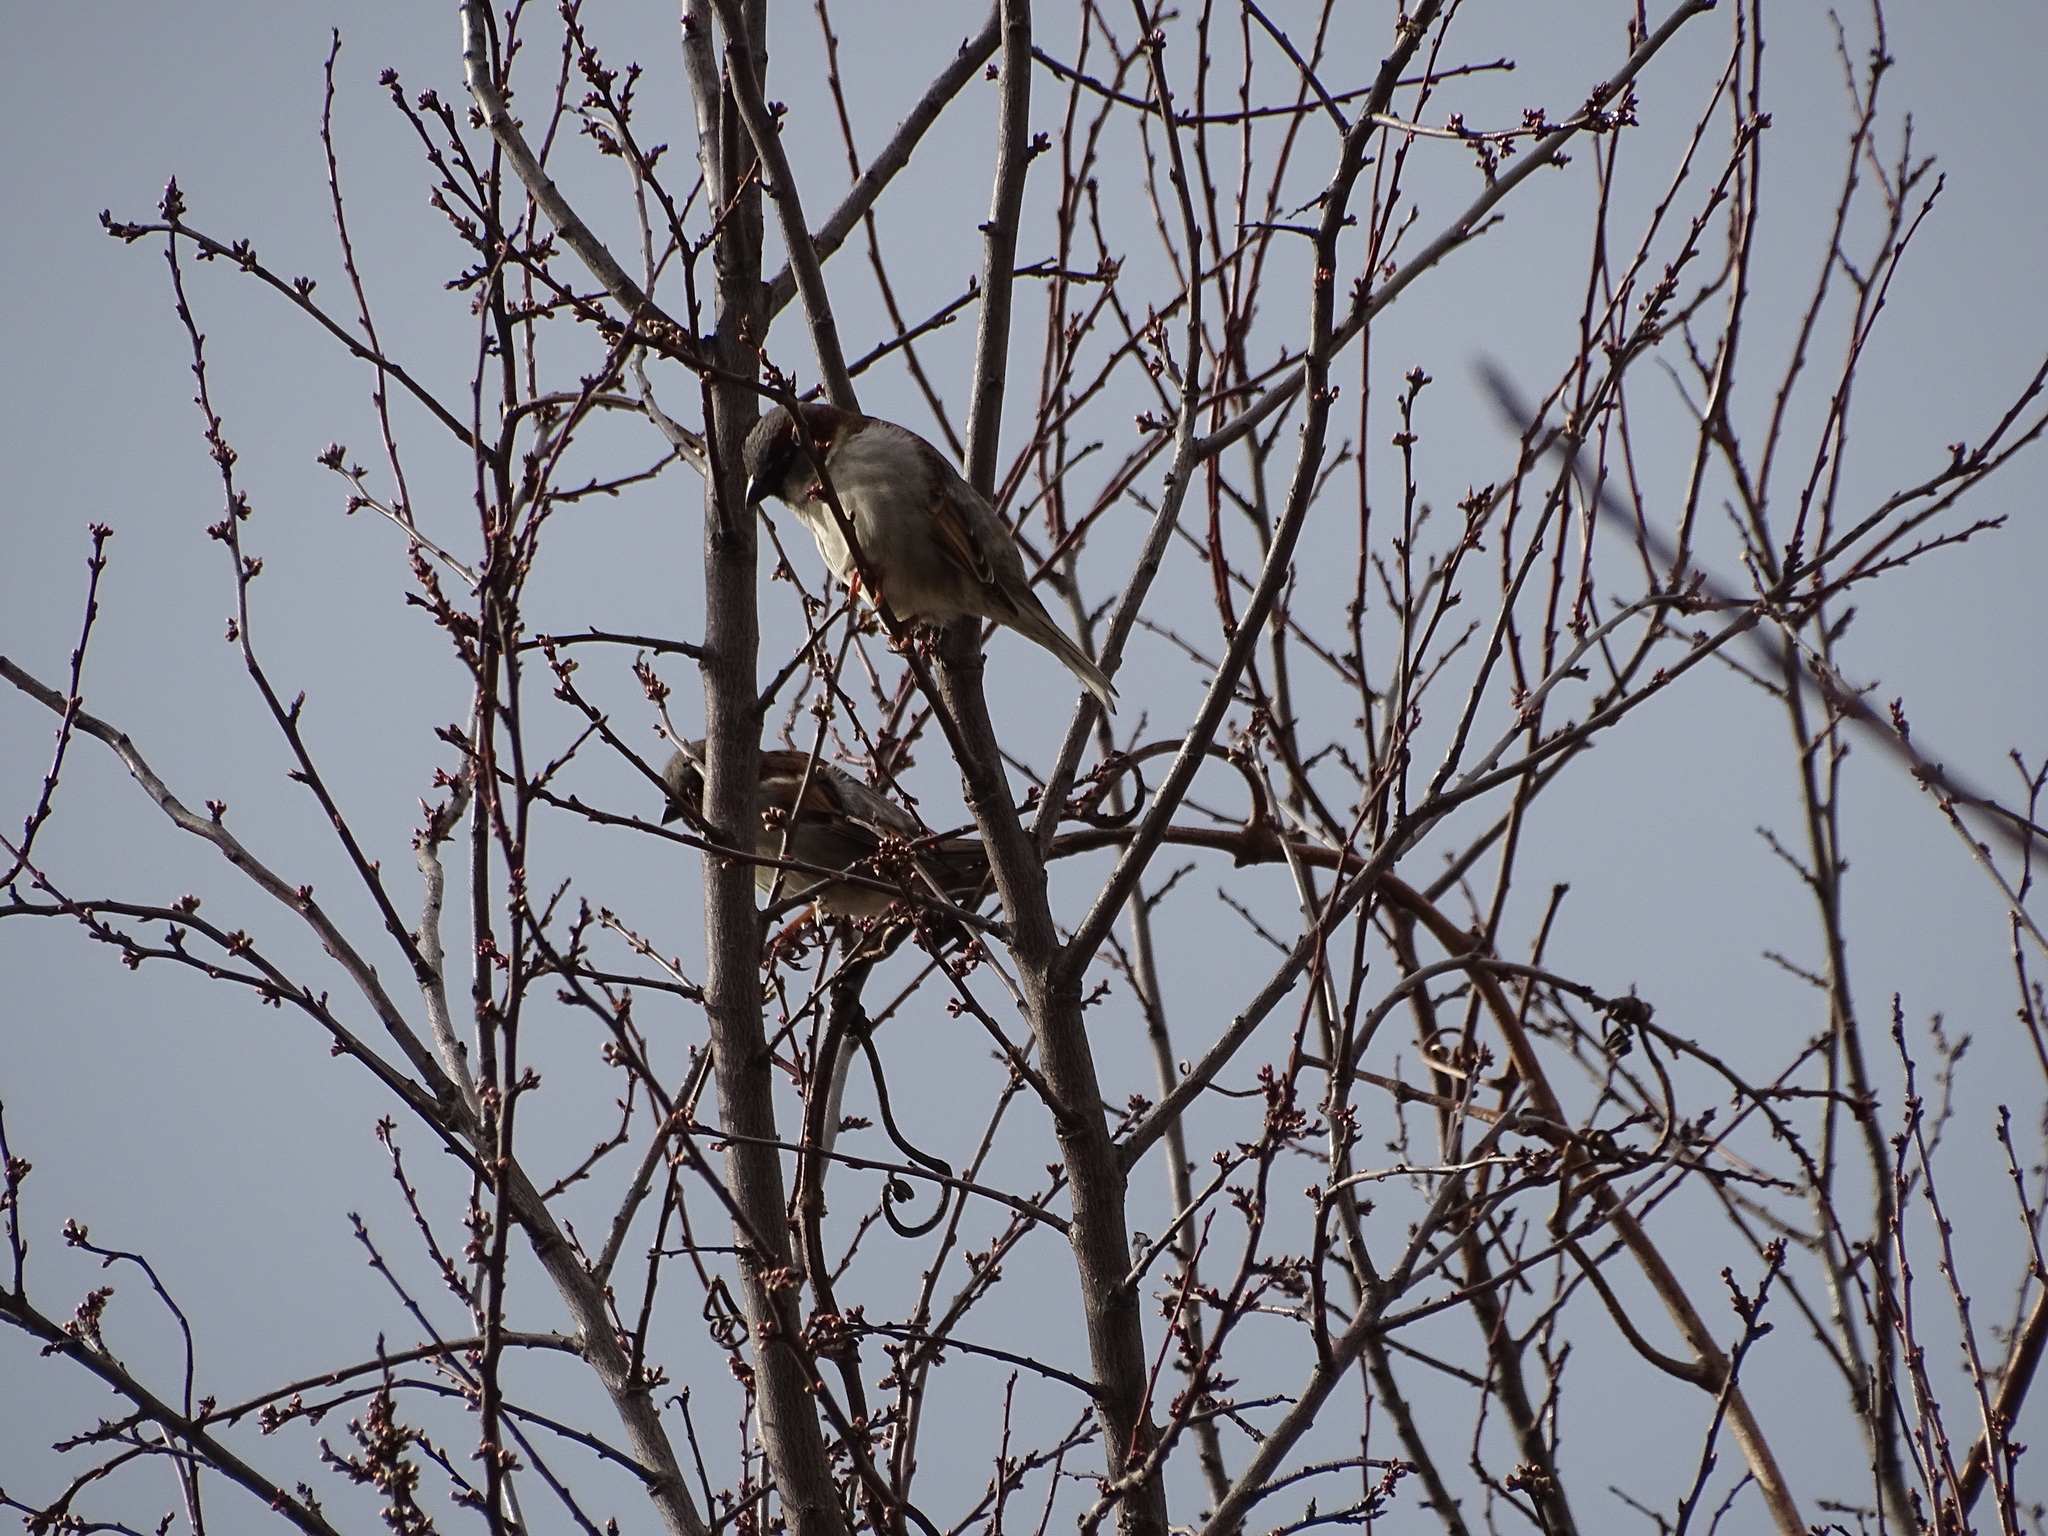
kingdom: Animalia
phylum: Chordata
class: Aves
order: Passeriformes
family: Passeridae
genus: Passer
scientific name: Passer domesticus
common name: House sparrow
